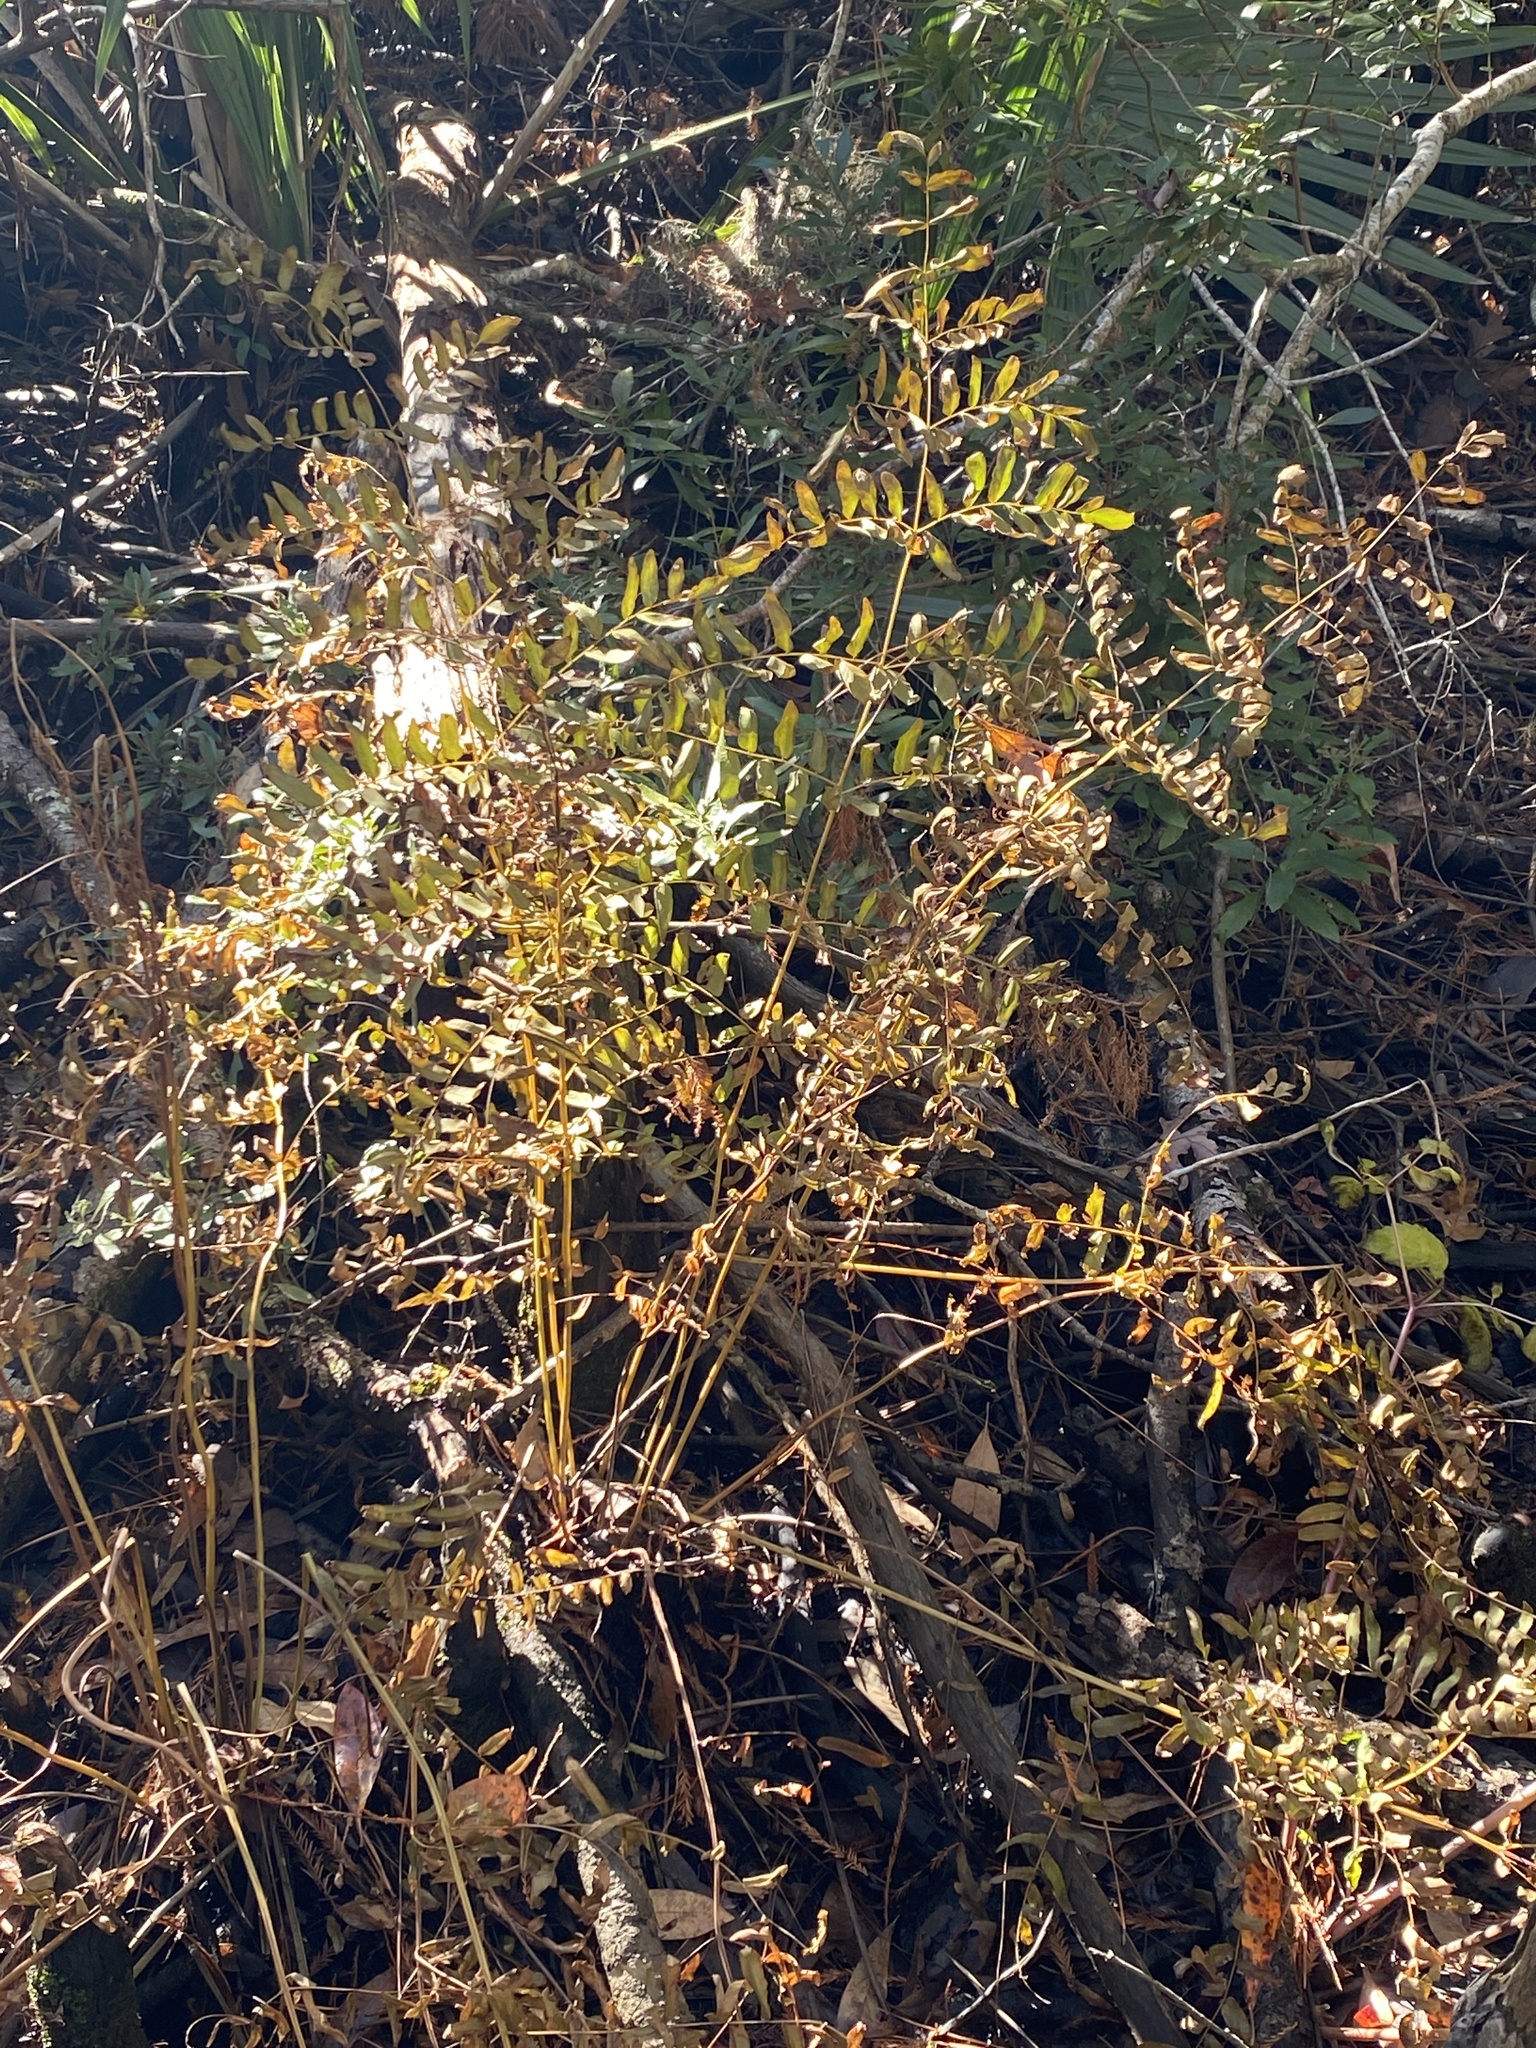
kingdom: Plantae
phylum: Tracheophyta
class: Polypodiopsida
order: Osmundales
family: Osmundaceae
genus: Osmunda
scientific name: Osmunda spectabilis
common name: American royal fern
